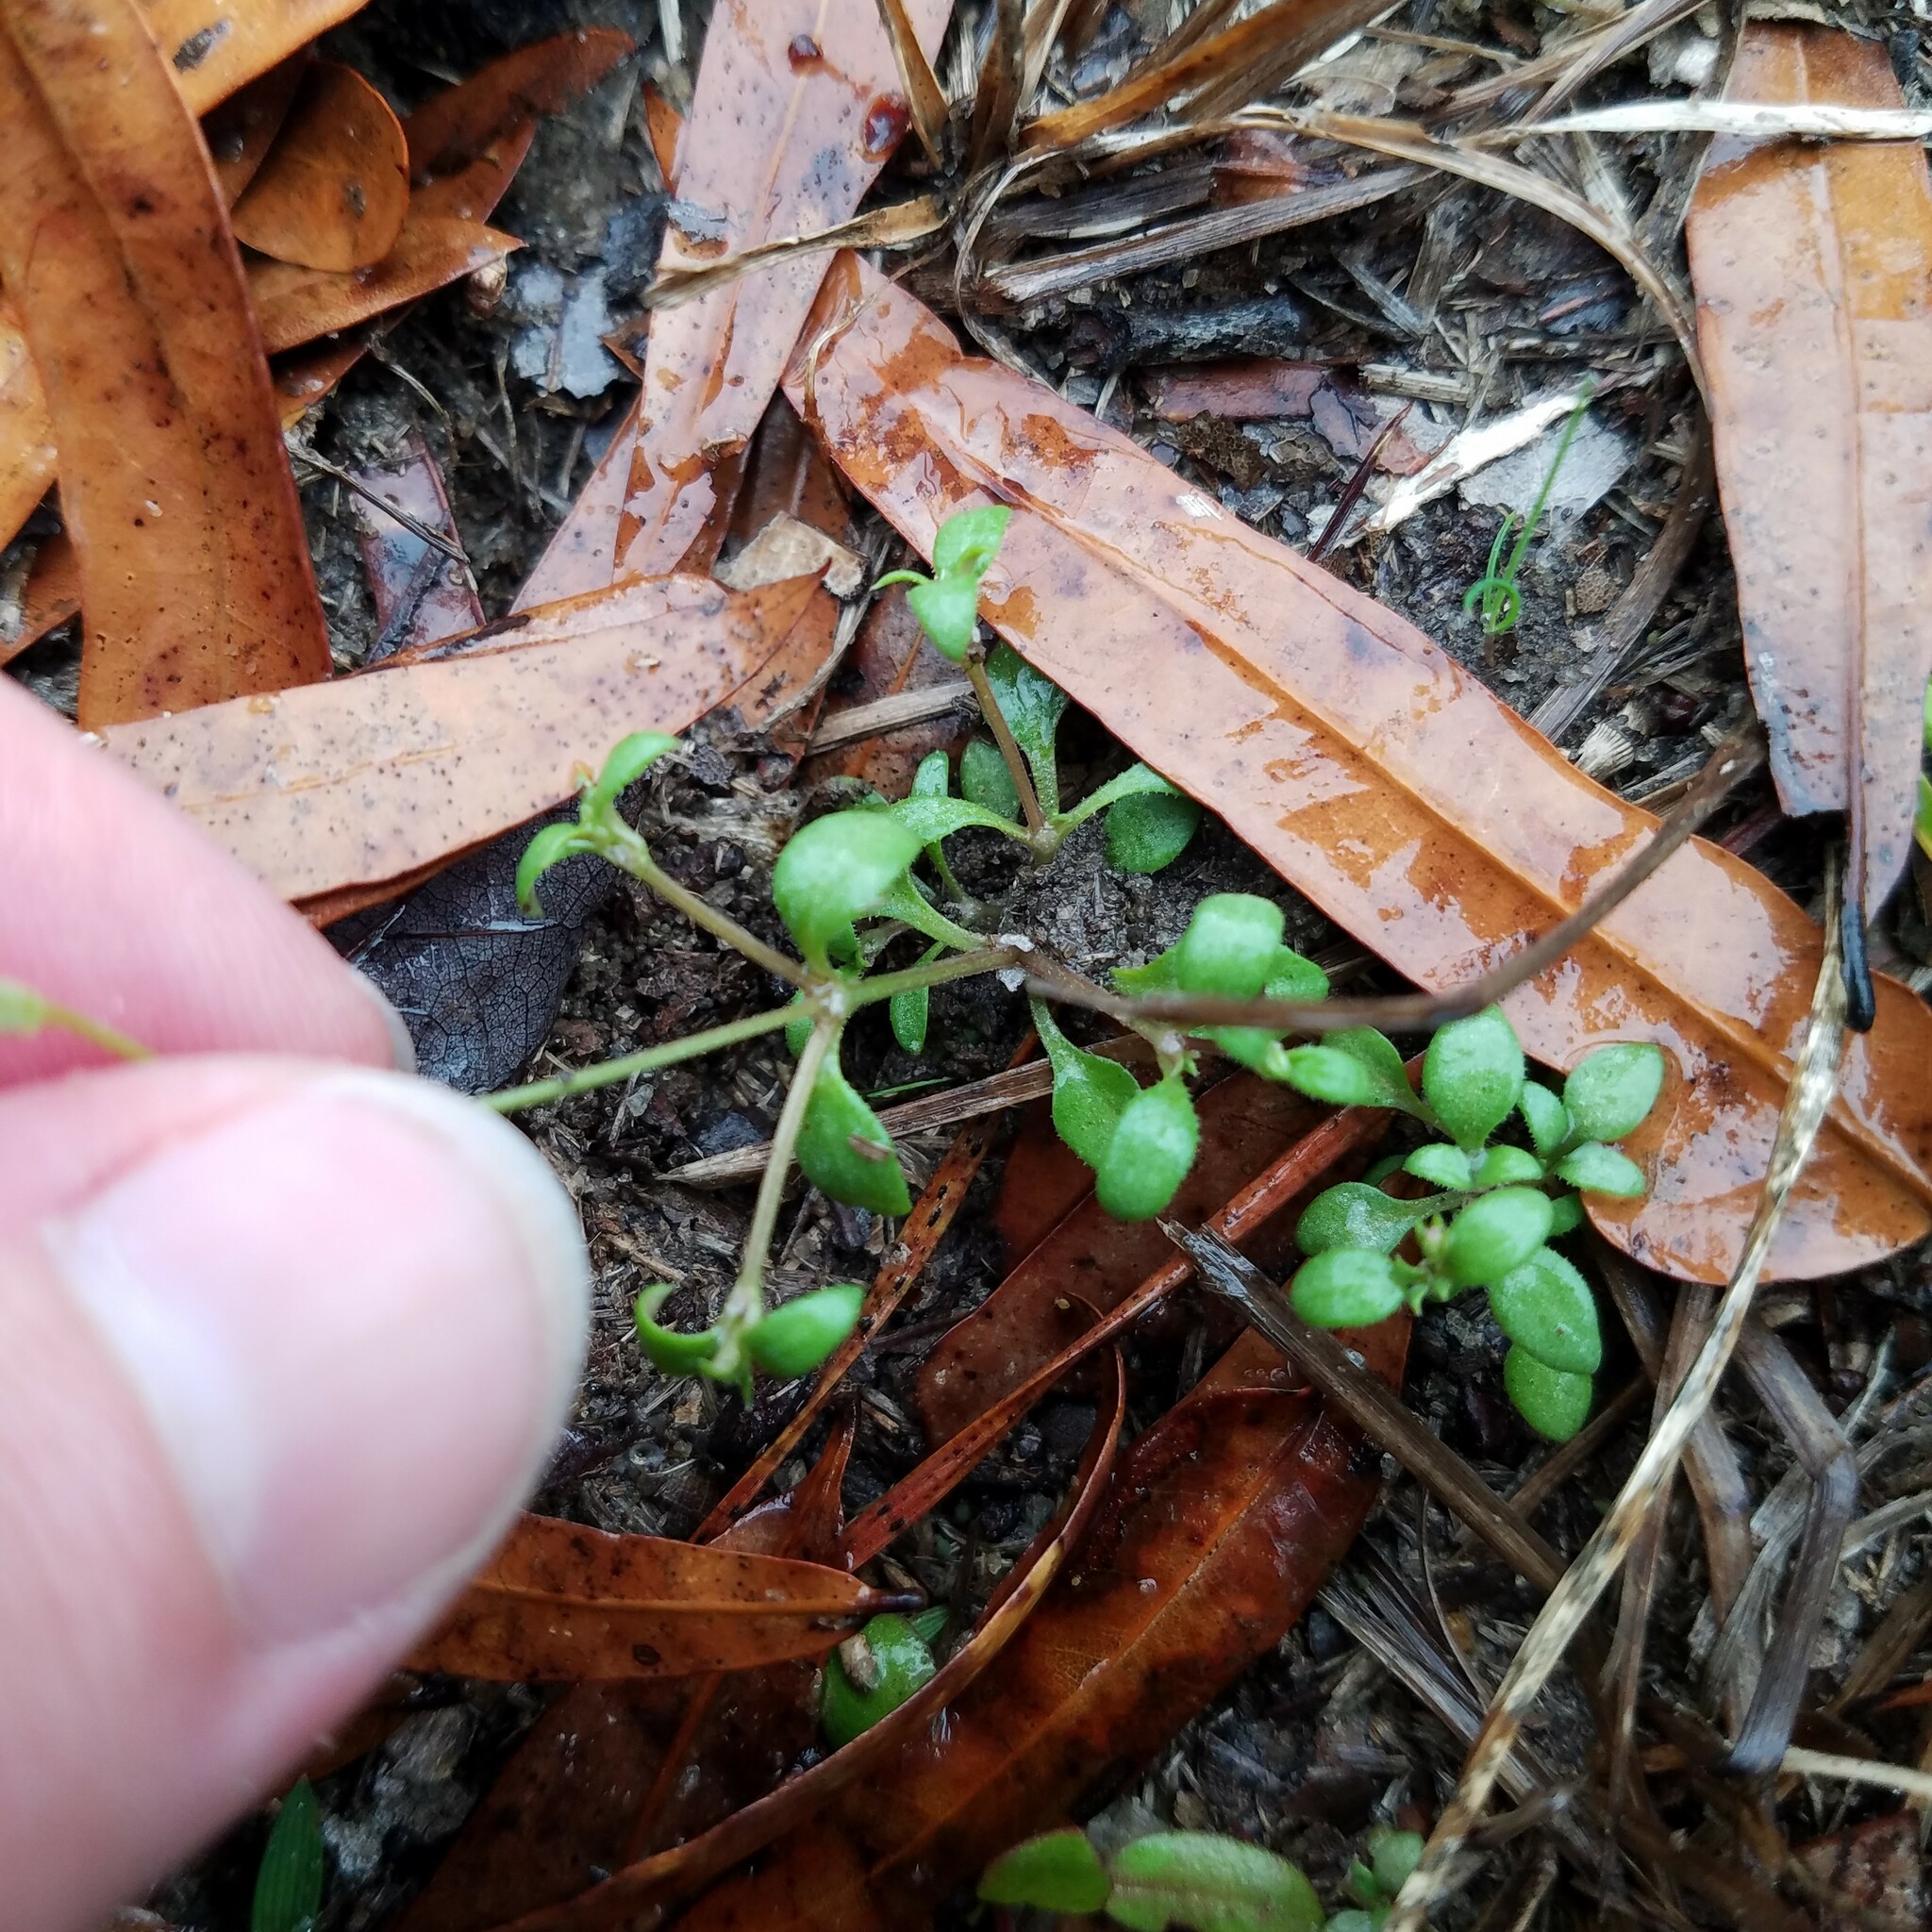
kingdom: Plantae
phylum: Tracheophyta
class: Magnoliopsida
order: Gentianales
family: Rubiaceae
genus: Houstonia
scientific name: Houstonia pusilla
